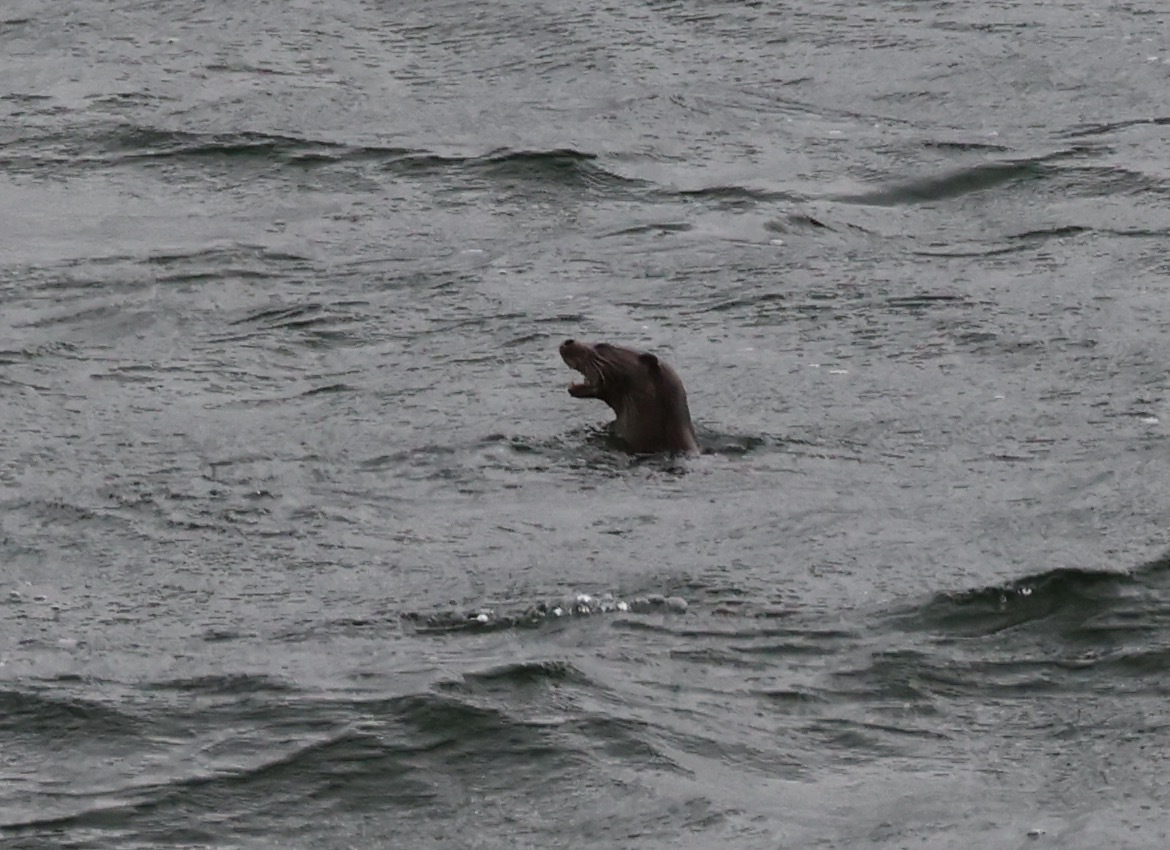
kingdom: Animalia
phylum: Chordata
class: Mammalia
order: Carnivora
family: Mustelidae
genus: Lutra
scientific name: Lutra lutra
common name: European otter
